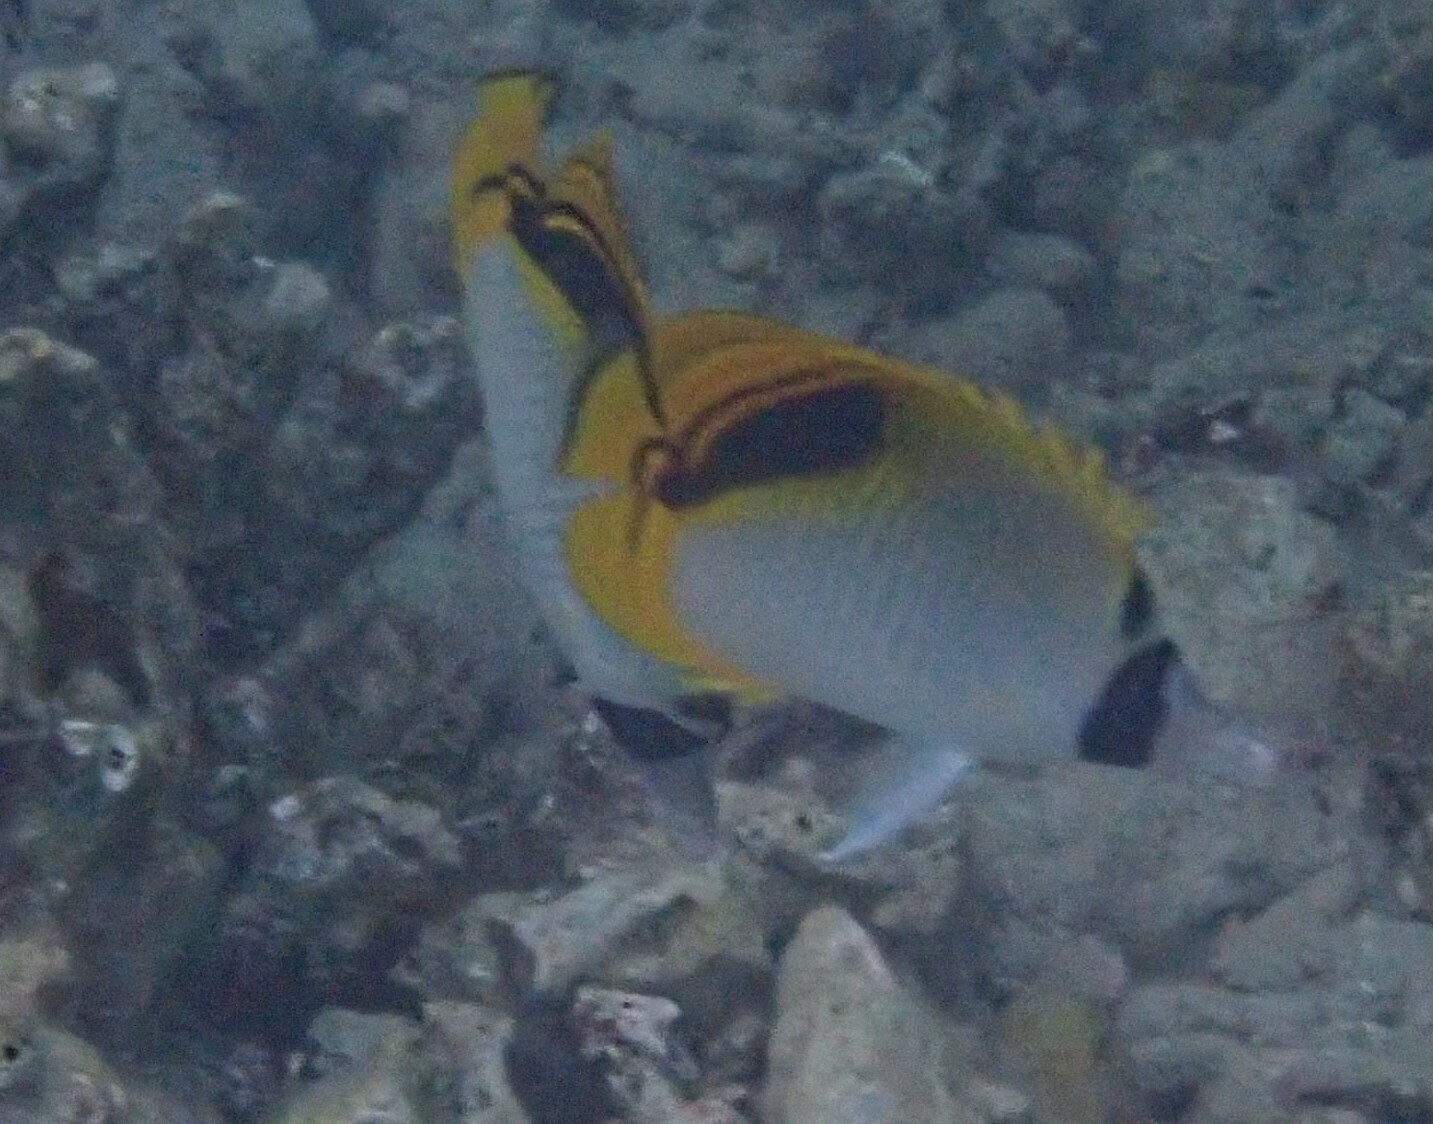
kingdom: Animalia
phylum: Chordata
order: Perciformes
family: Chaetodontidae
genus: Chaetodon
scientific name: Chaetodon oxycephalus
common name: Spot-nape butterflyfish
